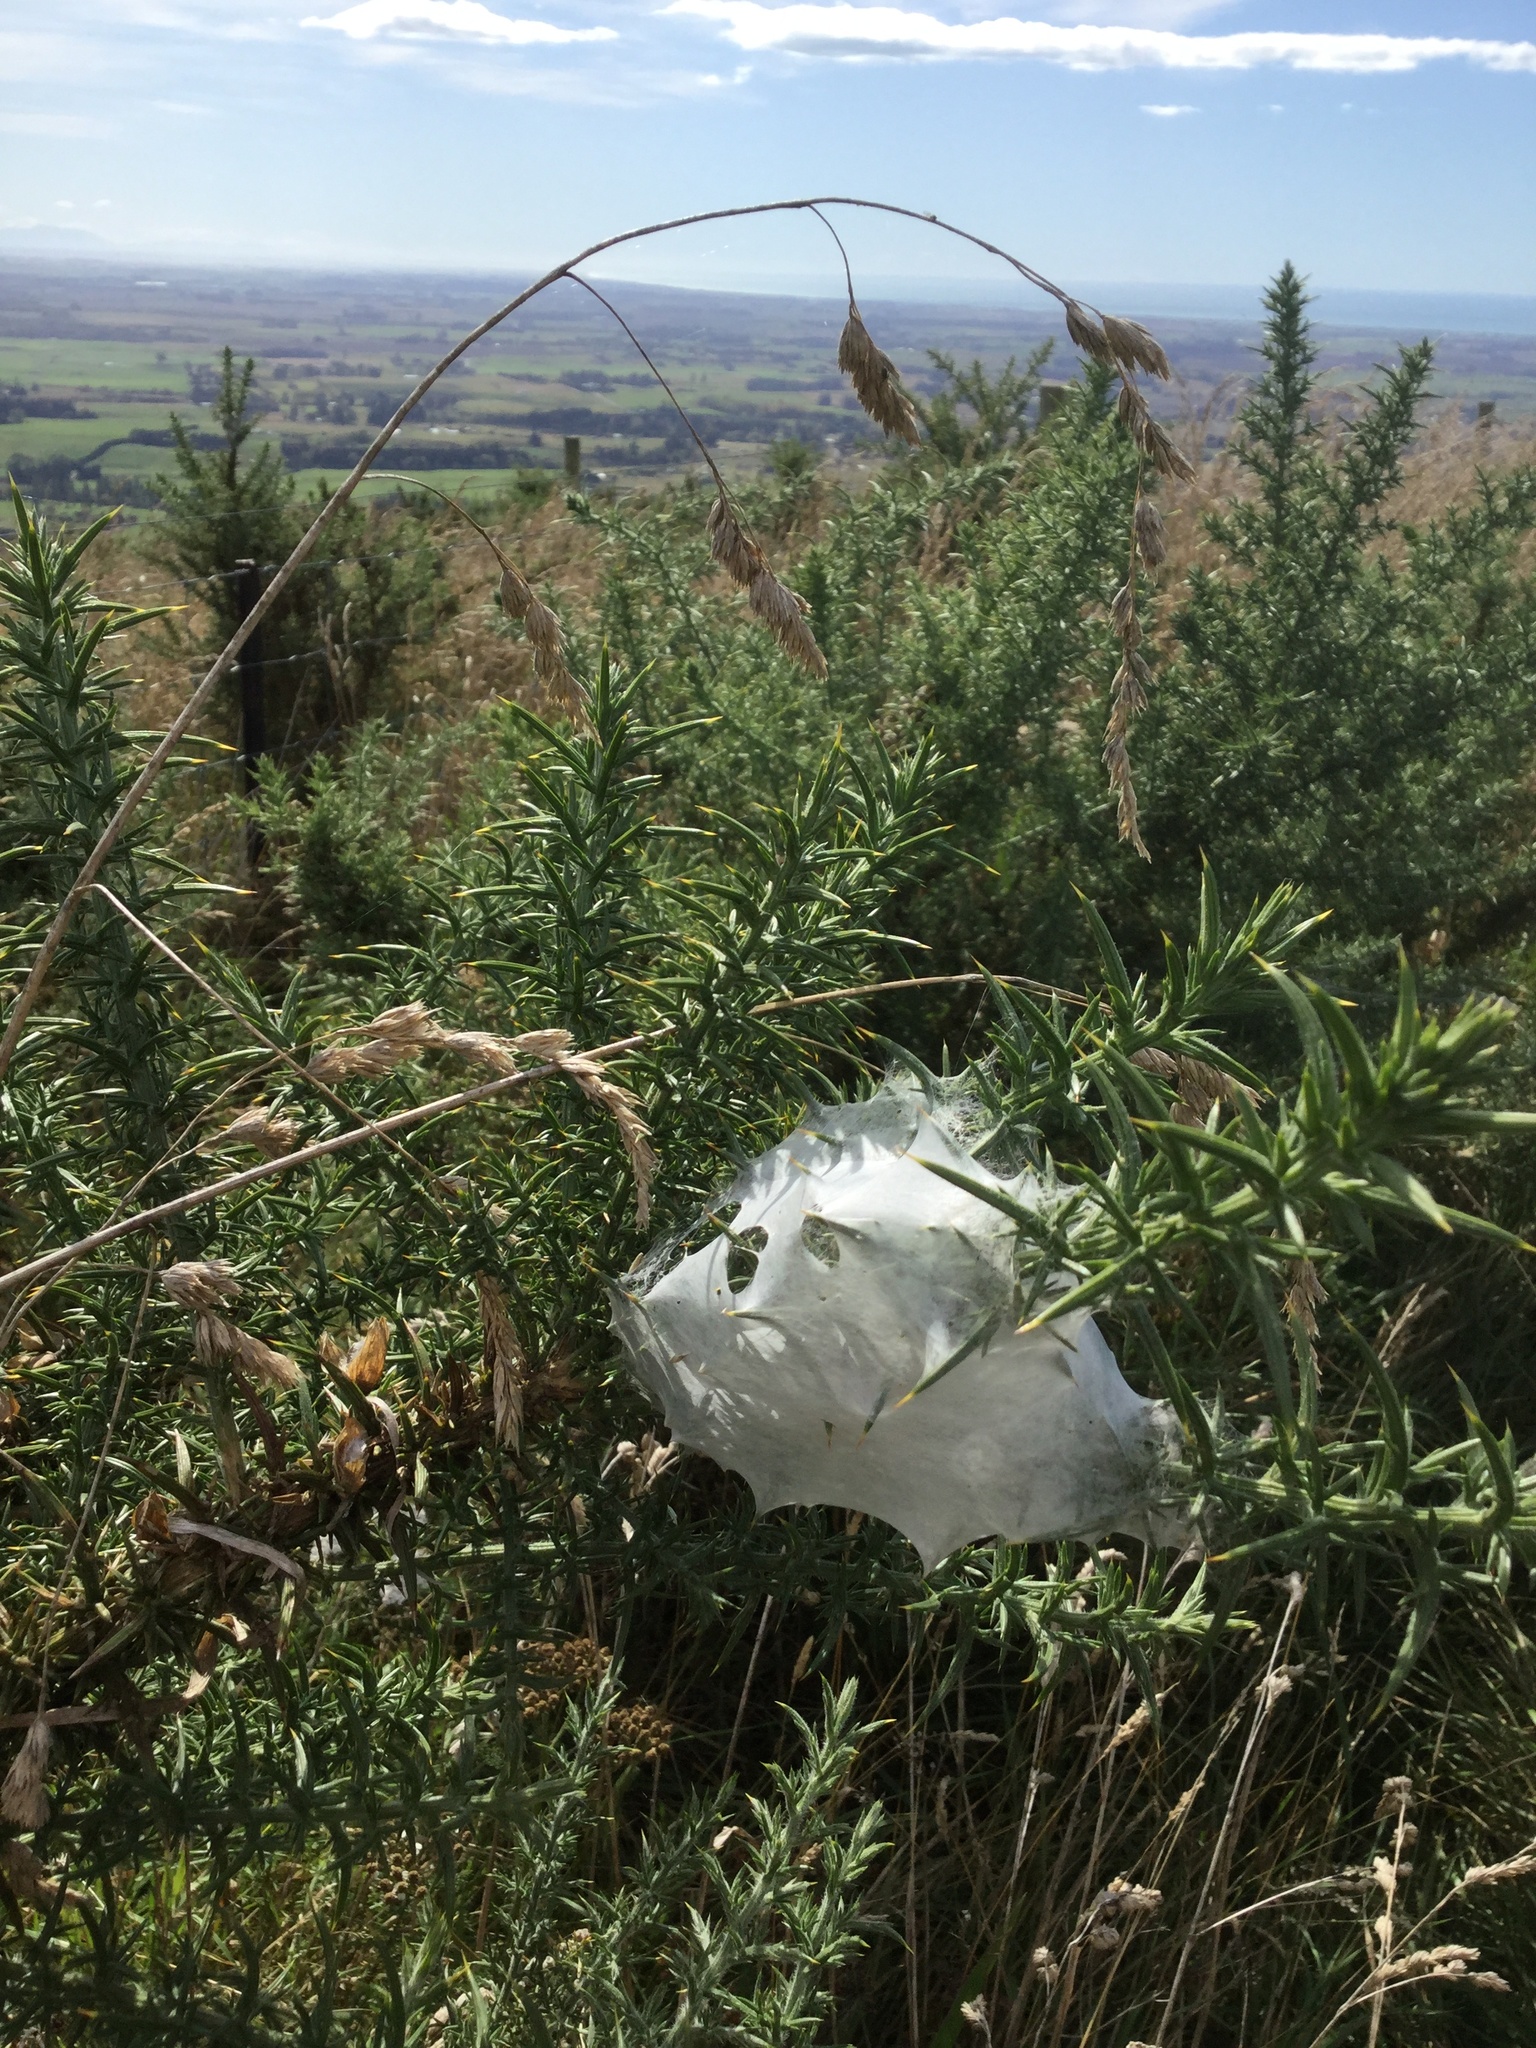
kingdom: Animalia
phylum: Arthropoda
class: Arachnida
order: Araneae
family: Pisauridae
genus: Dolomedes
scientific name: Dolomedes minor
